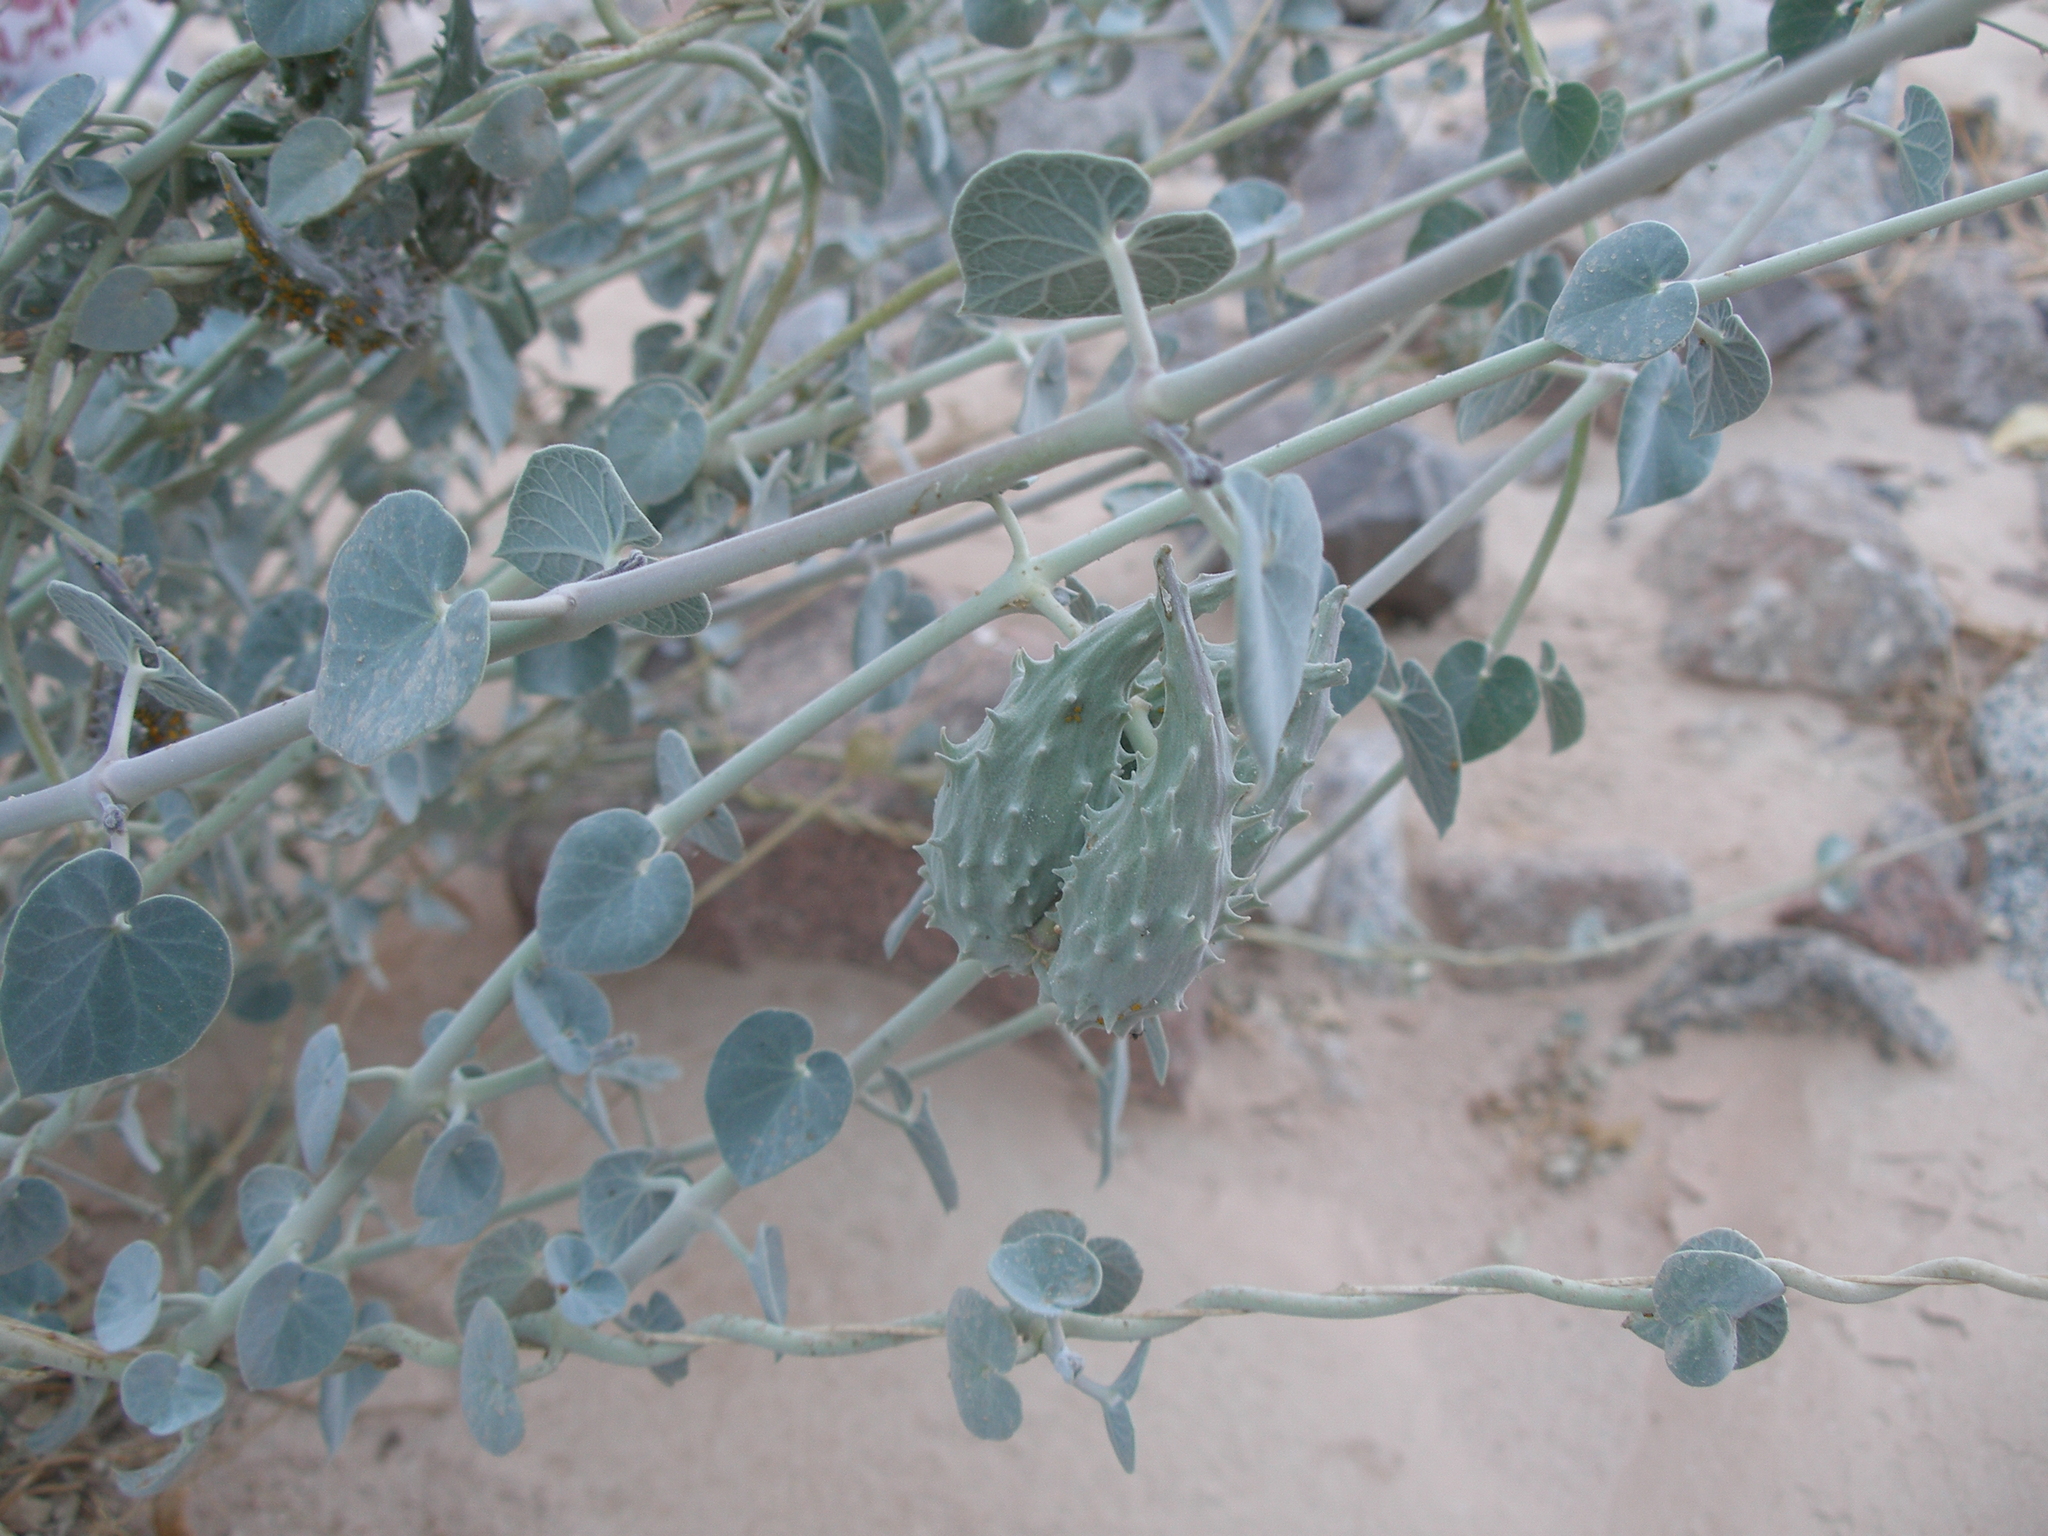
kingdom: Plantae
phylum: Tracheophyta
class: Magnoliopsida
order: Gentianales
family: Apocynaceae
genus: Pergularia
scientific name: Pergularia tomentosa
